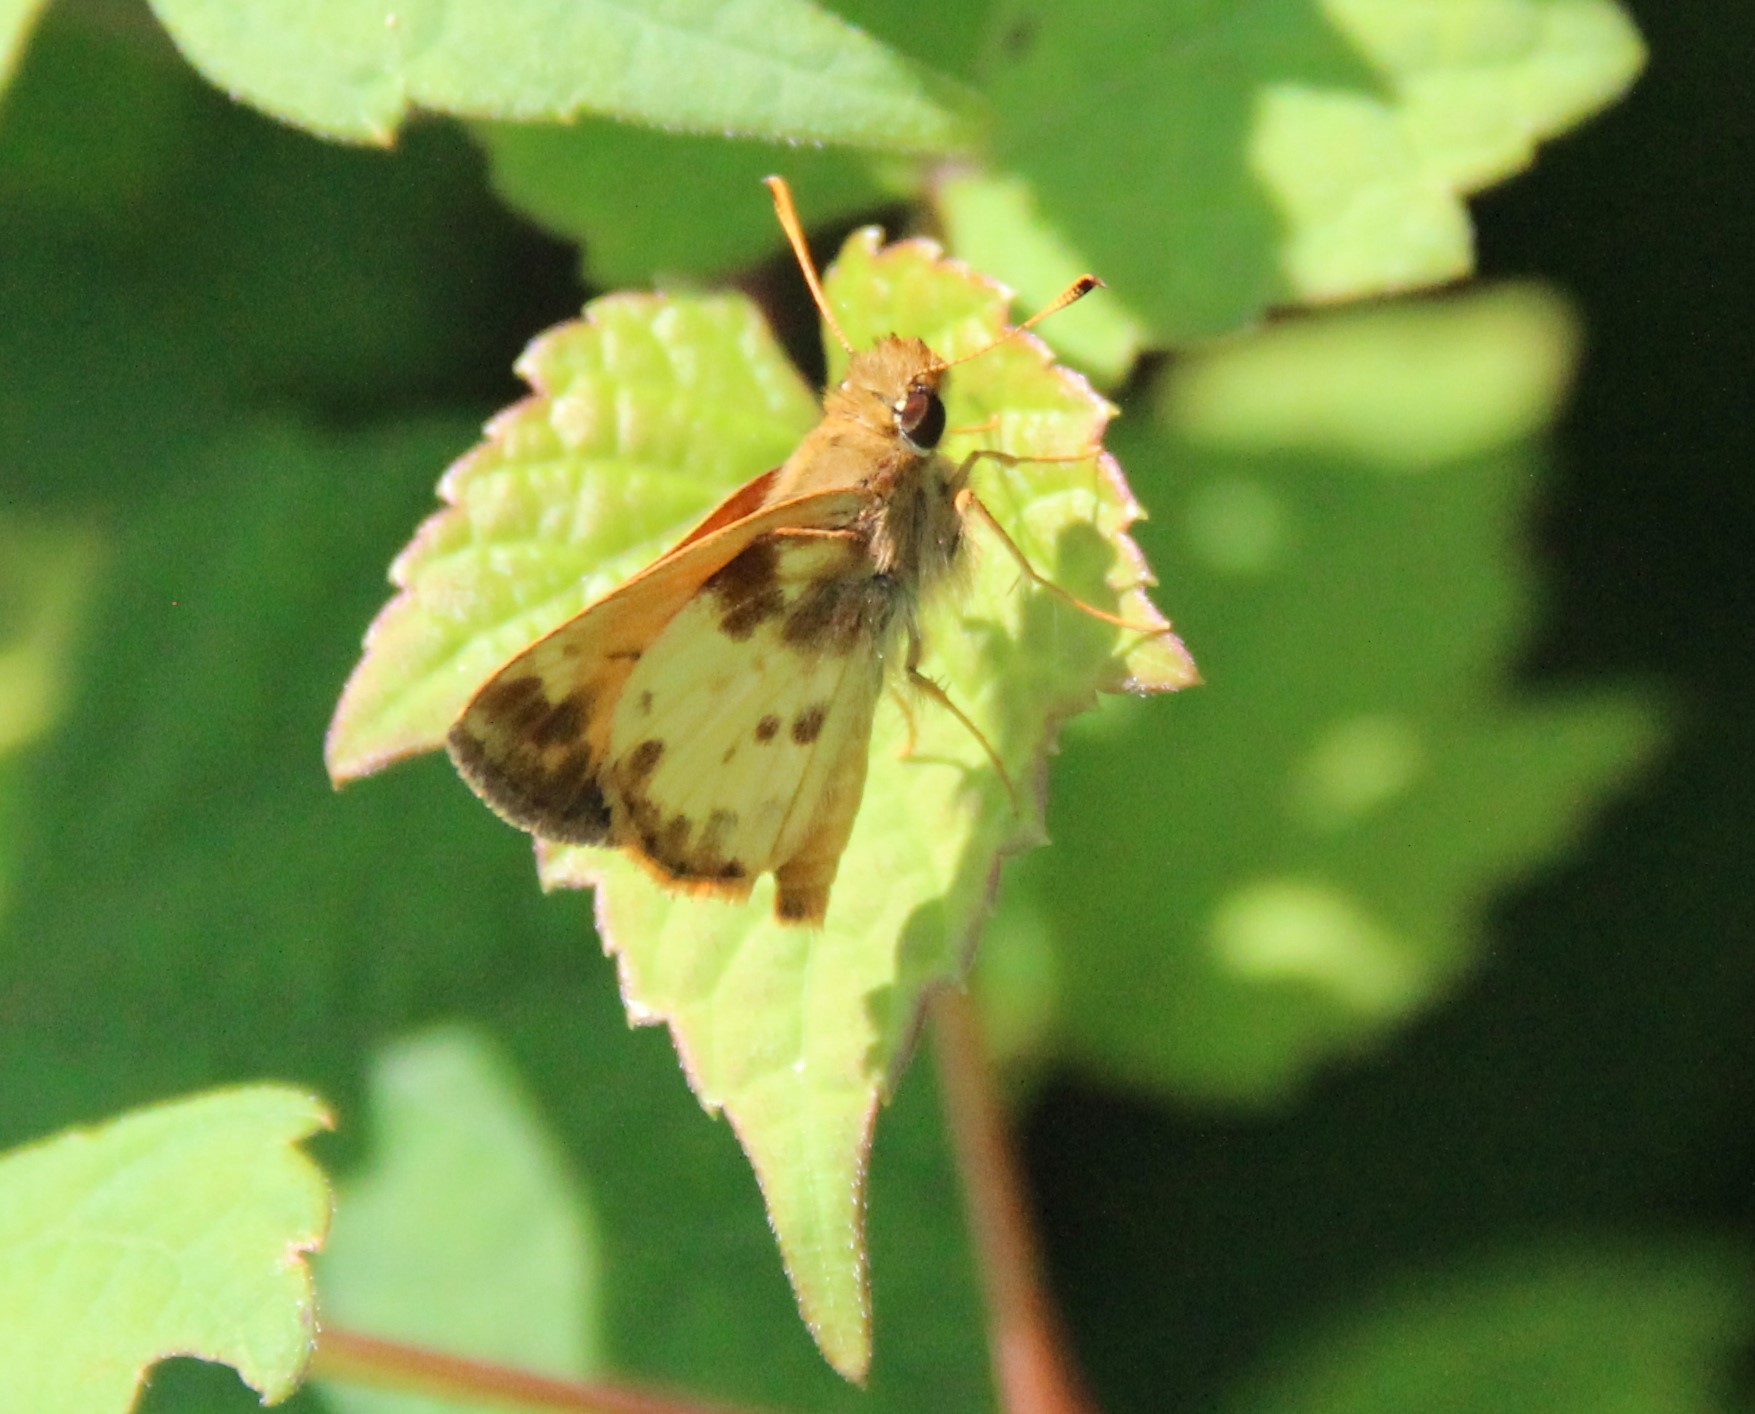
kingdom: Animalia
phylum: Arthropoda
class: Insecta
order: Lepidoptera
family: Hesperiidae
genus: Lon
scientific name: Lon zabulon
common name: Zabulon skipper
